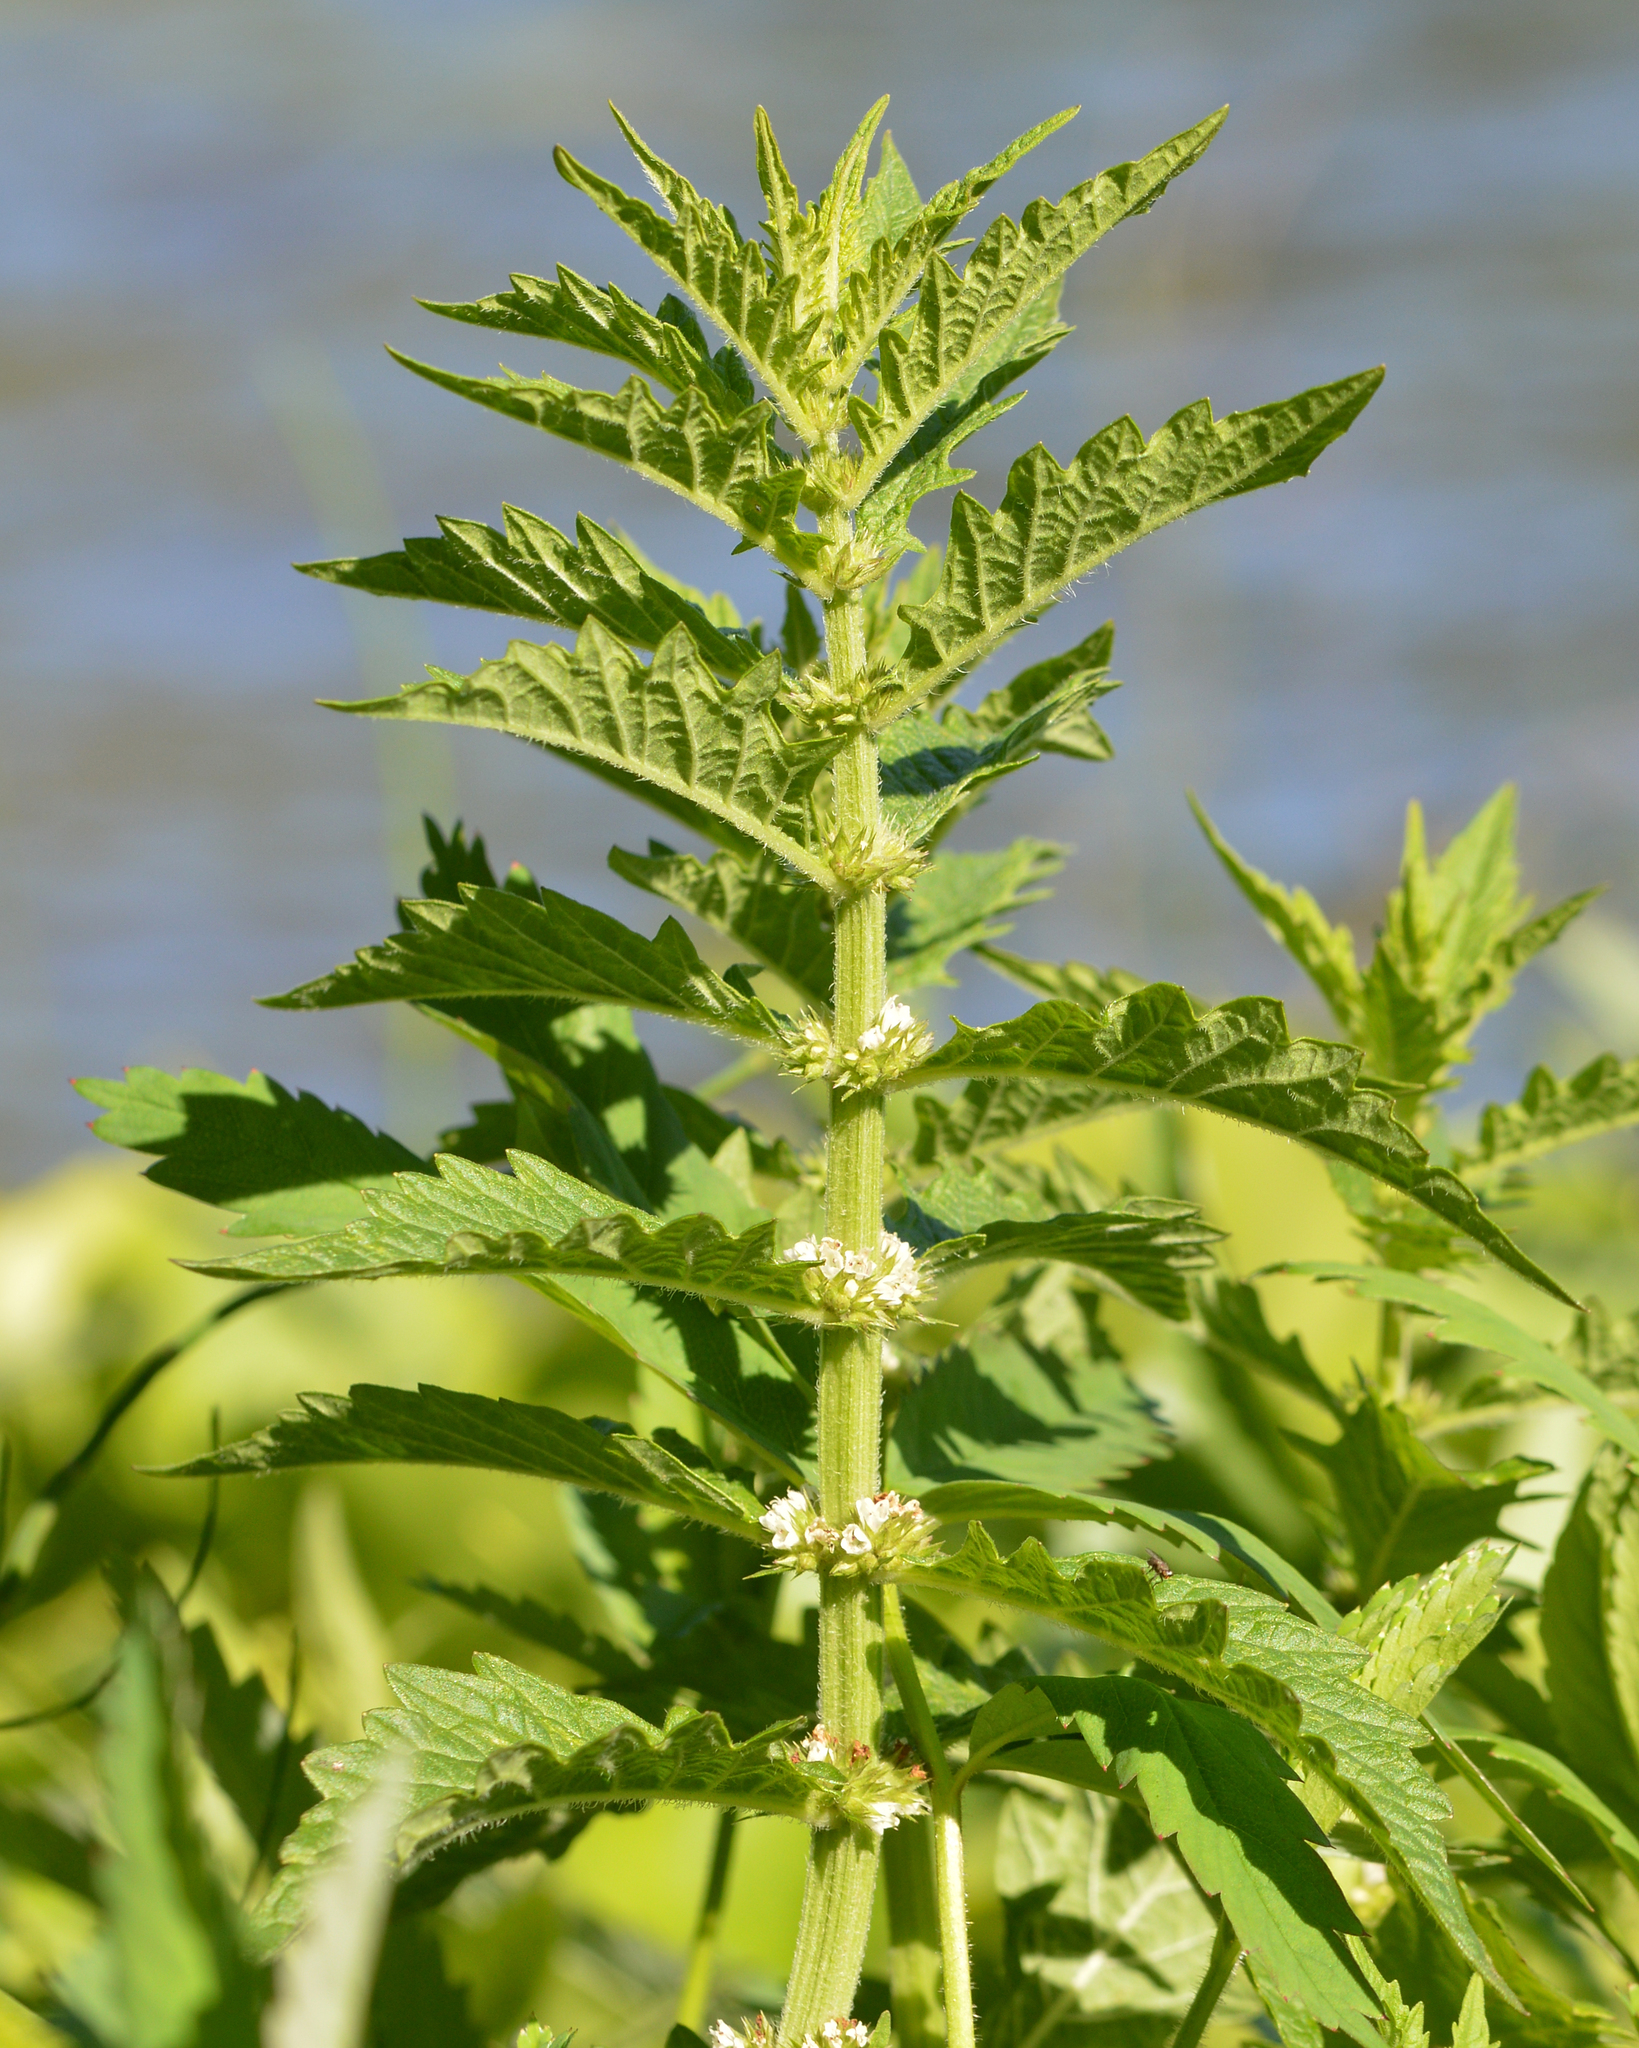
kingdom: Plantae
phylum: Tracheophyta
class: Magnoliopsida
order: Lamiales
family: Lamiaceae
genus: Lycopus
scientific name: Lycopus europaeus
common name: European bugleweed
